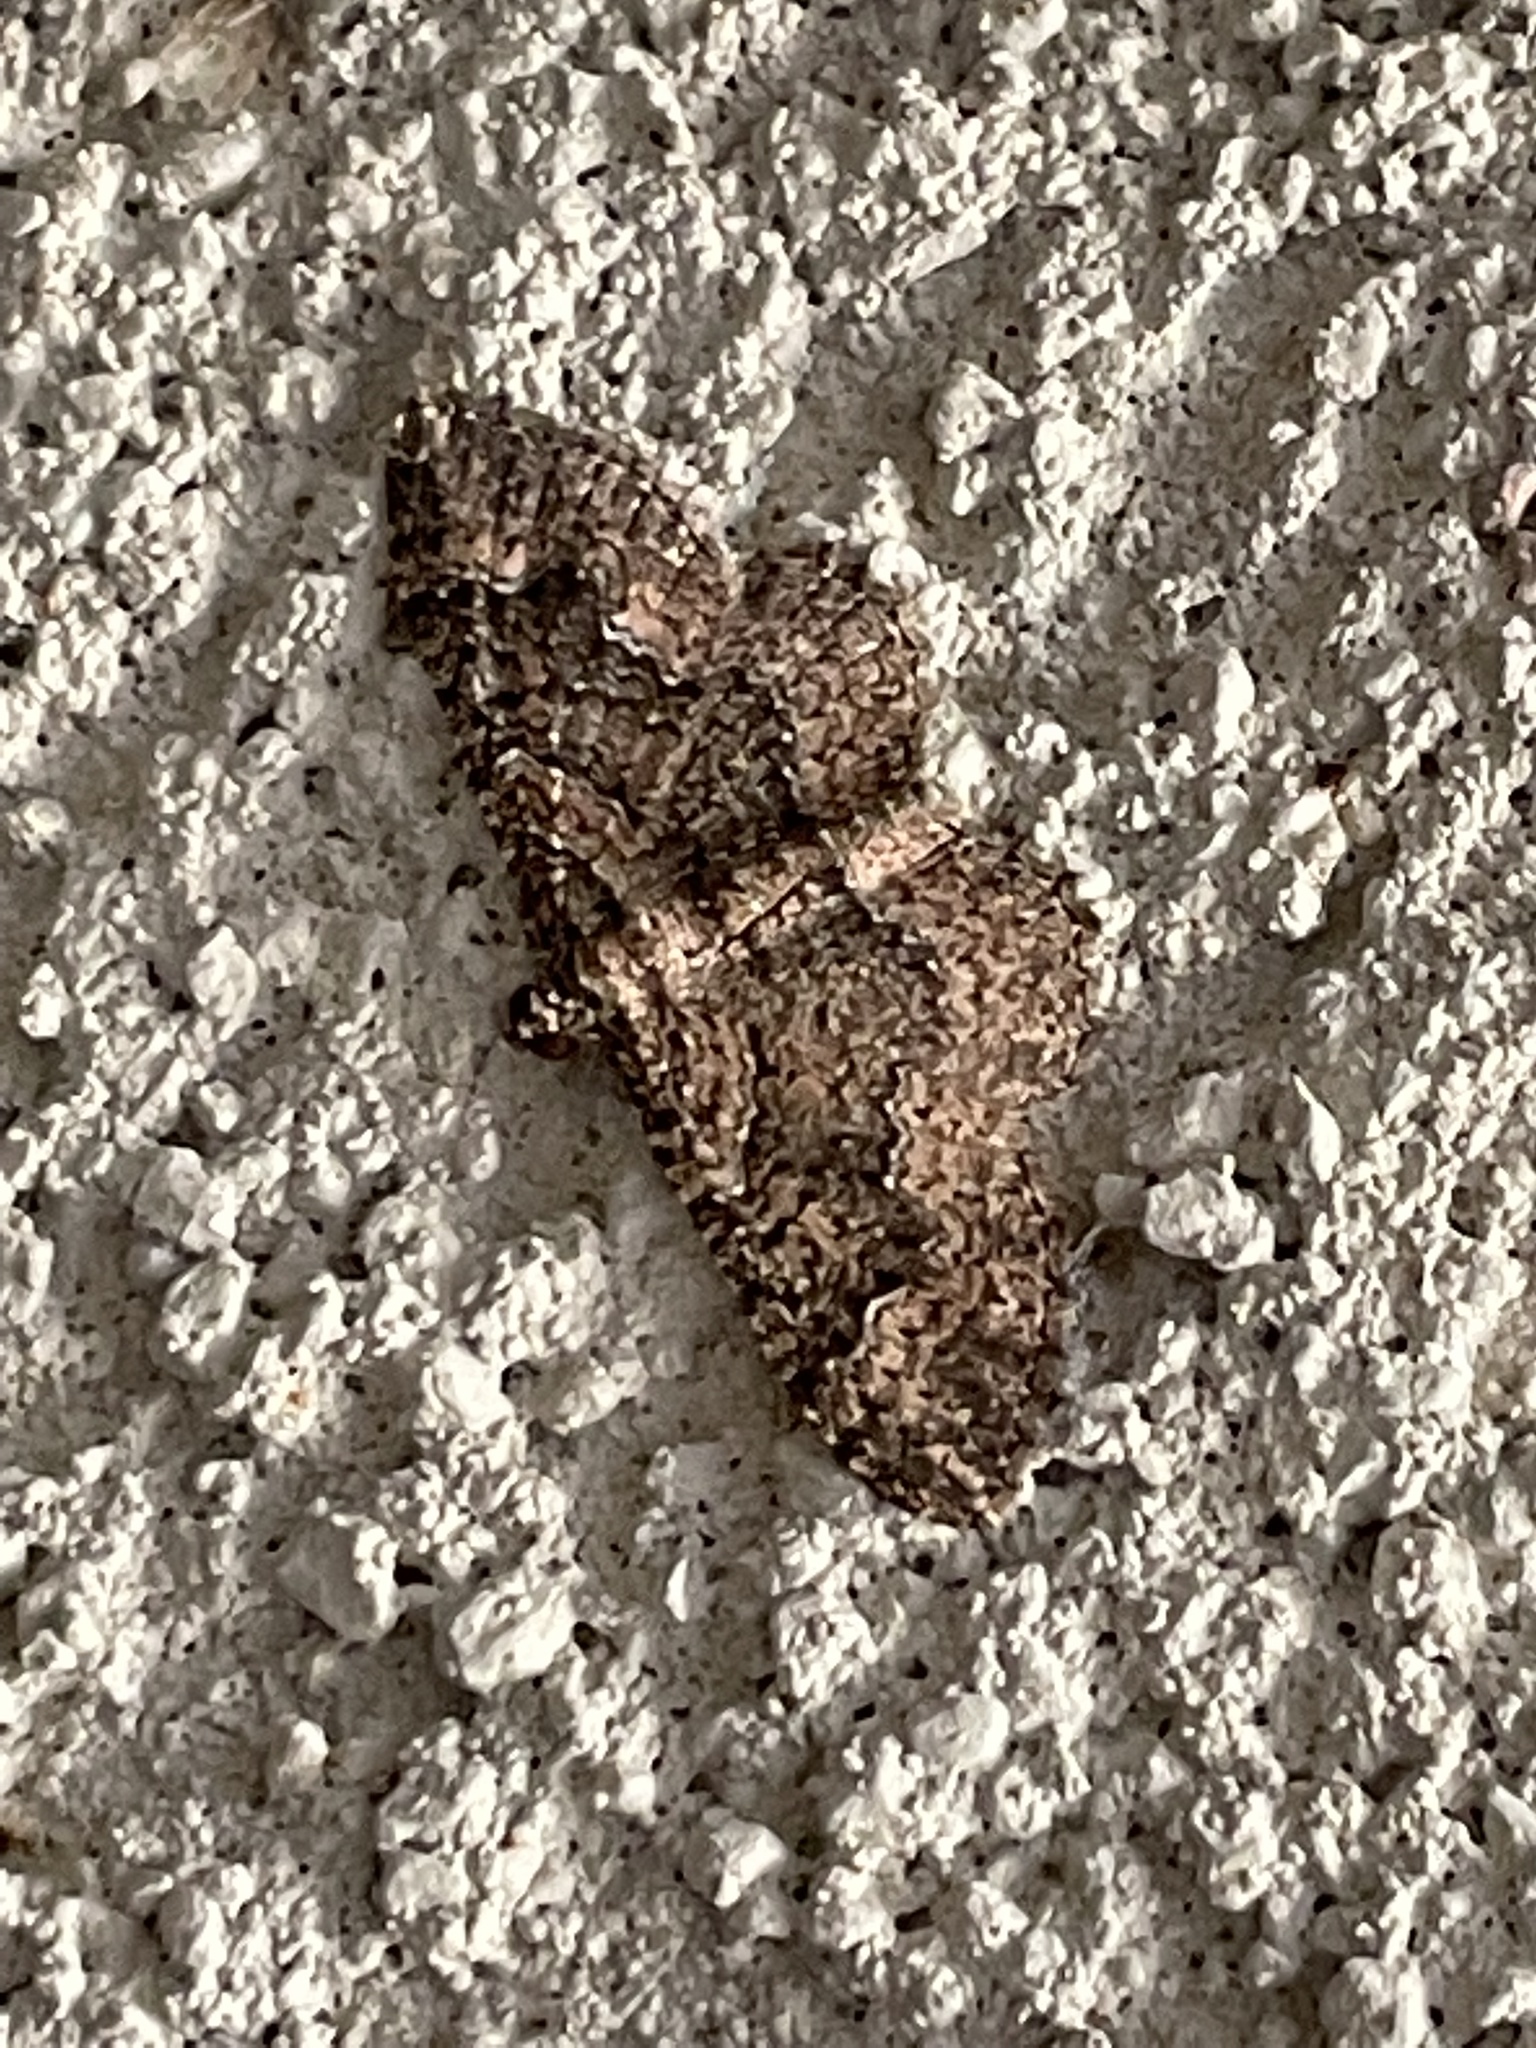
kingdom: Animalia
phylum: Arthropoda
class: Insecta
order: Lepidoptera
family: Geometridae
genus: Disclisioprocta
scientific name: Disclisioprocta stellata
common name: Somber carpet
